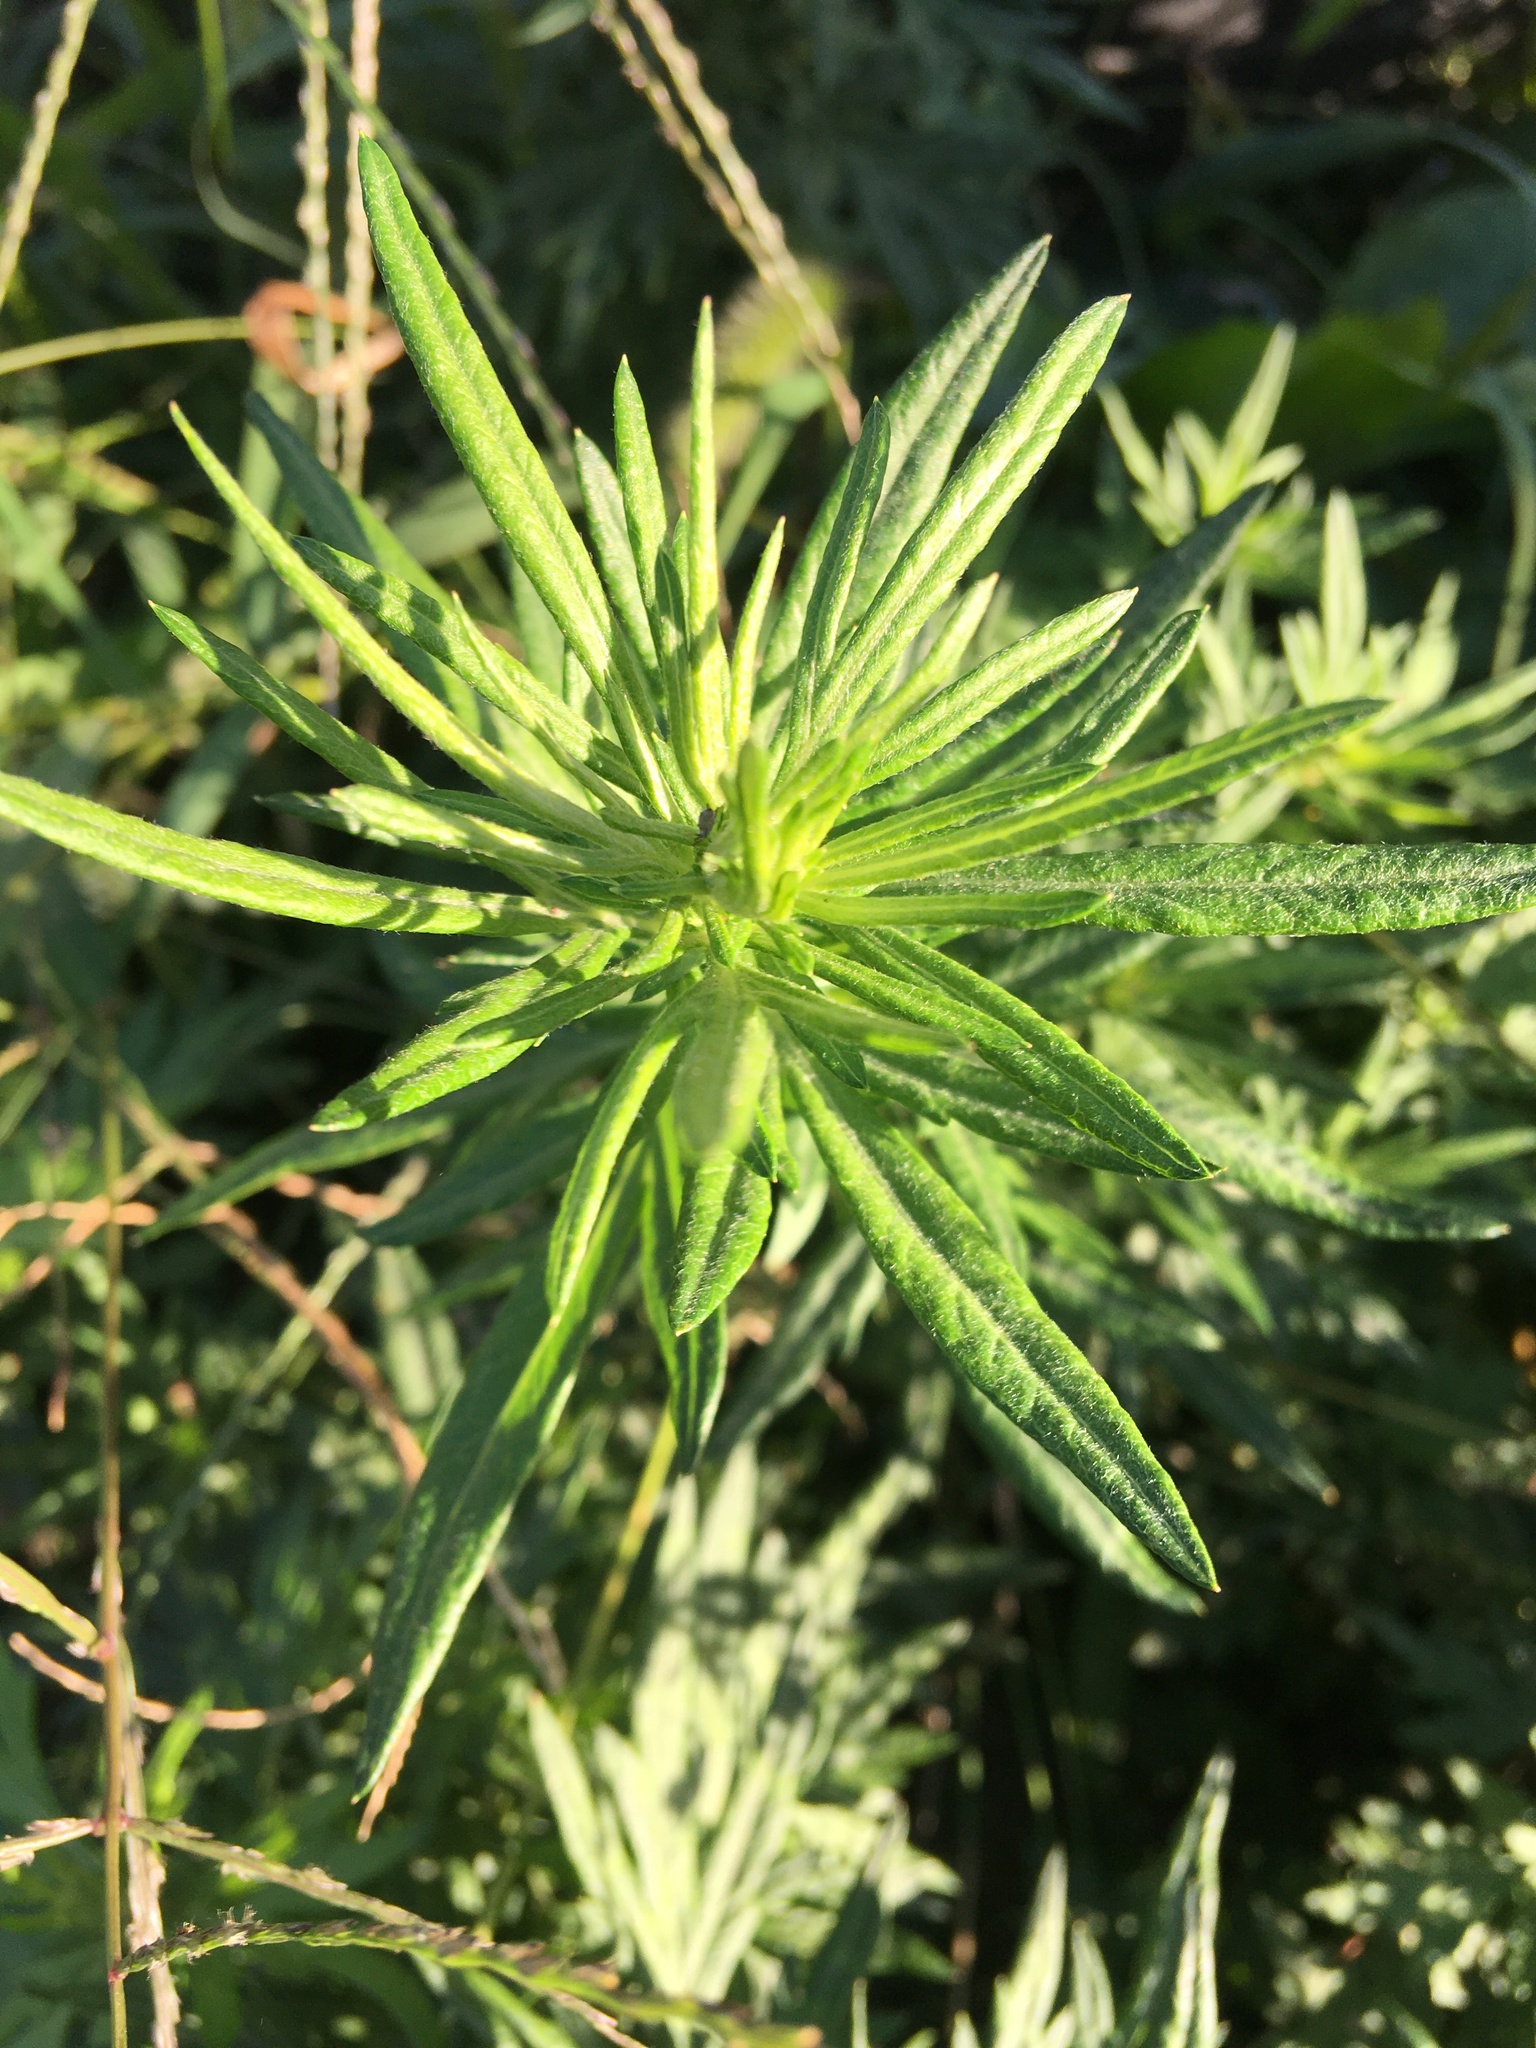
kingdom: Plantae
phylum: Tracheophyta
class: Magnoliopsida
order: Asterales
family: Asteraceae
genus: Artemisia
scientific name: Artemisia vulgaris
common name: Mugwort
